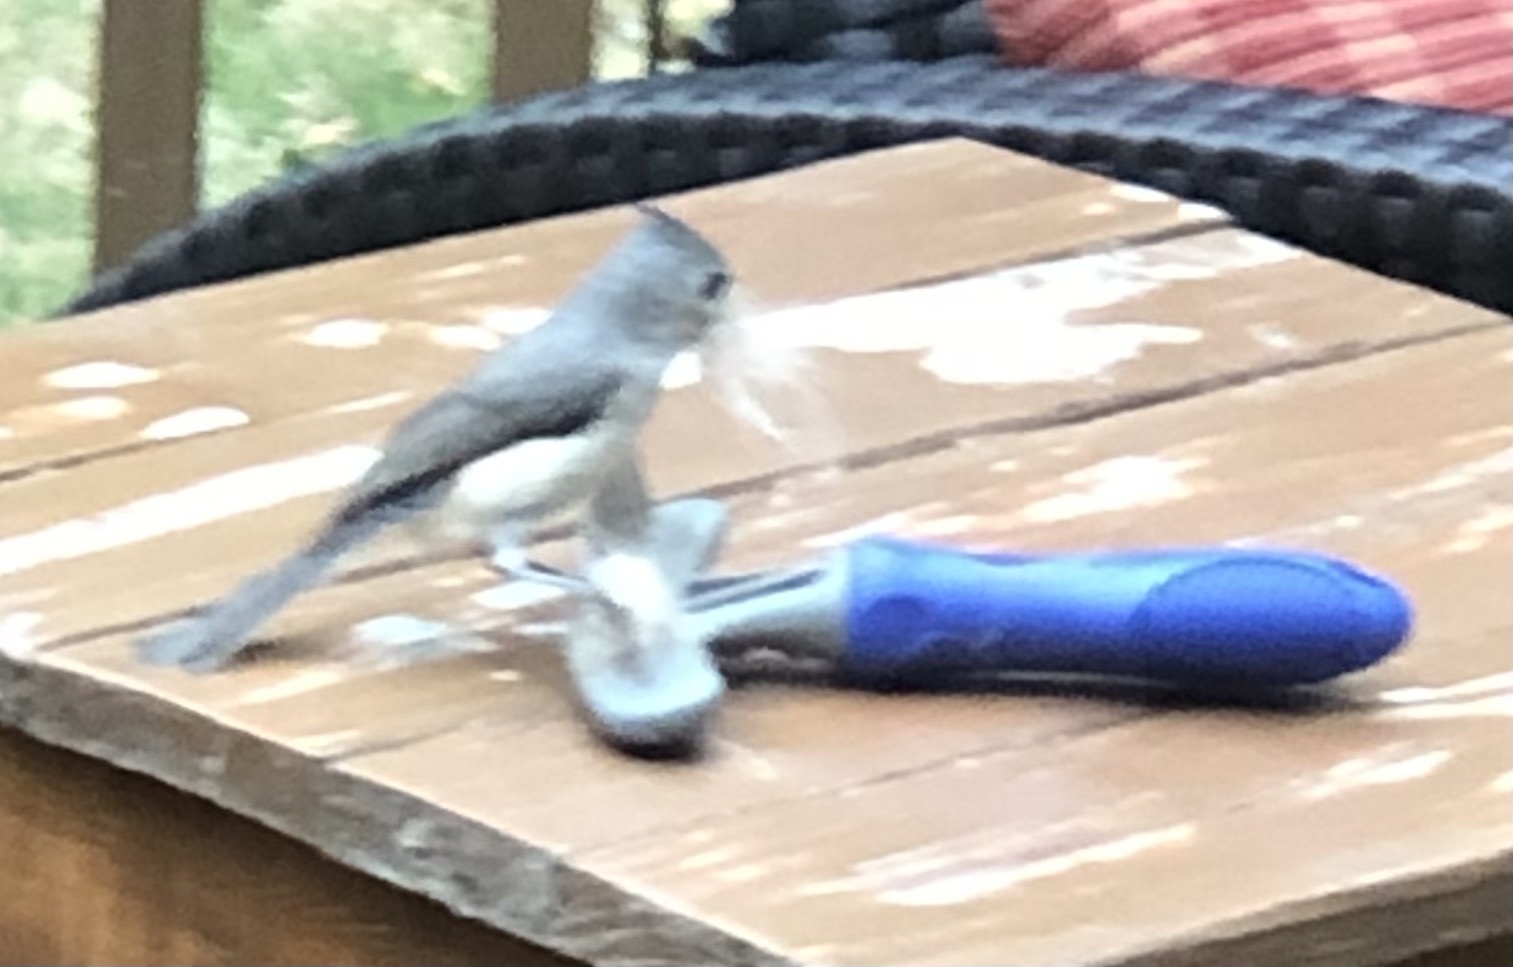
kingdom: Animalia
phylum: Chordata
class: Aves
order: Passeriformes
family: Paridae
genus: Baeolophus
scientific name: Baeolophus bicolor
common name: Tufted titmouse
